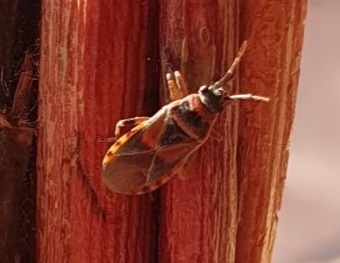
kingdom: Animalia
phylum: Arthropoda
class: Insecta
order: Hemiptera
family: Lygaeidae
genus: Arocatus
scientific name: Arocatus melanocephalus
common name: Lygaeid bug
